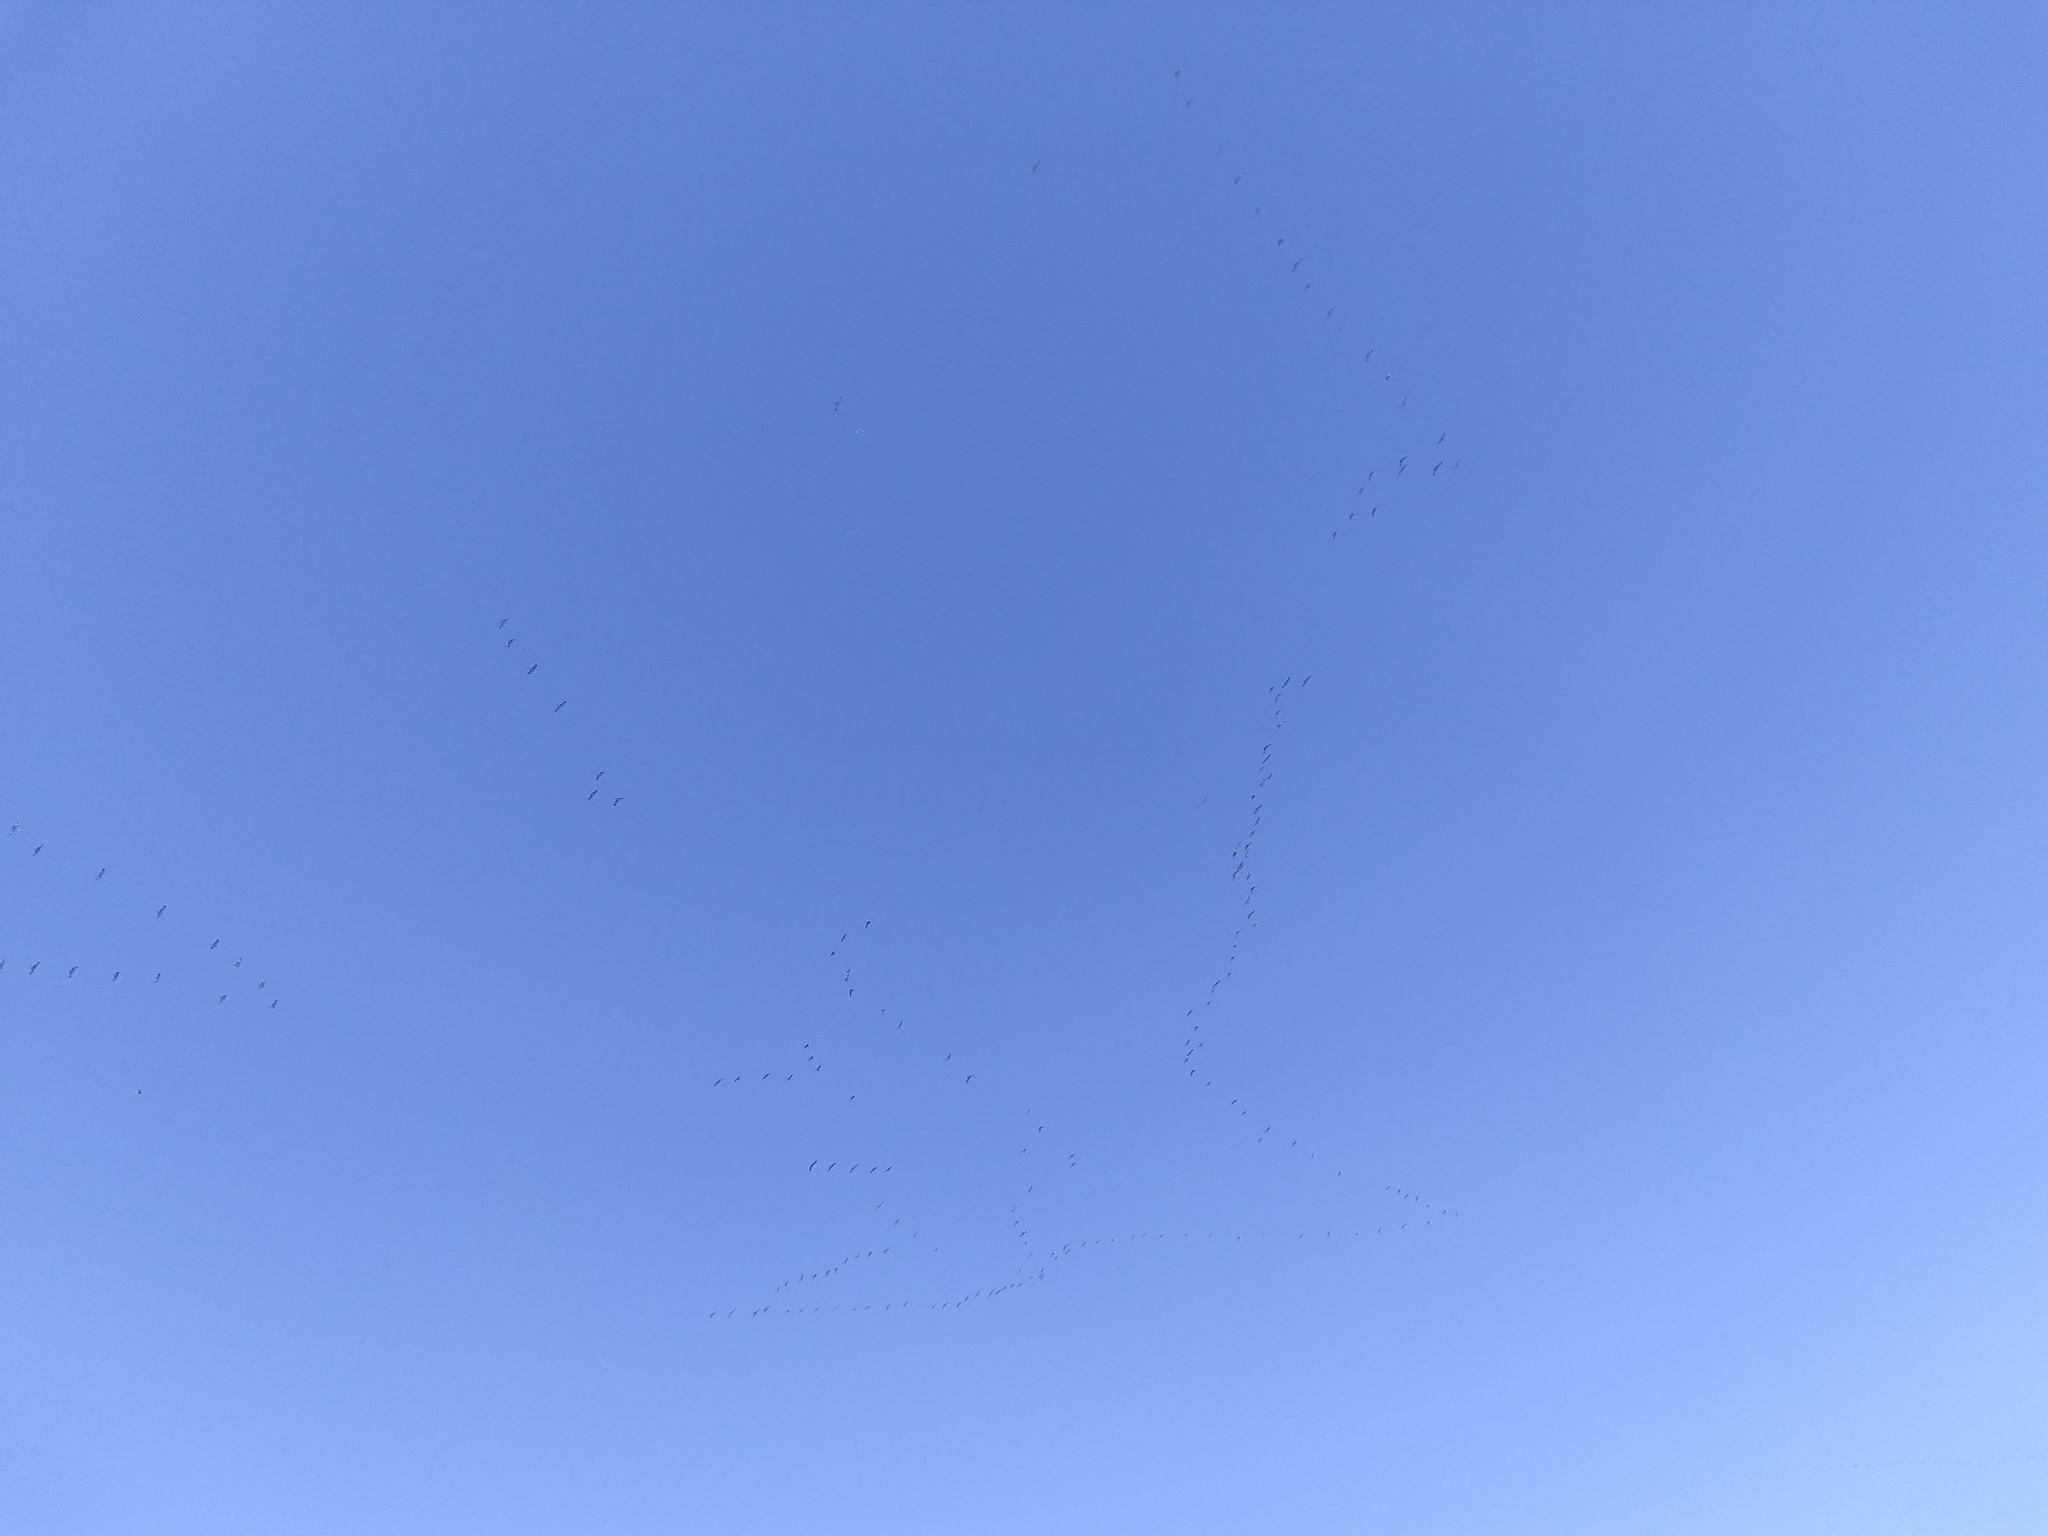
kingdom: Animalia
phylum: Chordata
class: Aves
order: Gruiformes
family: Gruidae
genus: Grus
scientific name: Grus canadensis
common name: Sandhill crane
